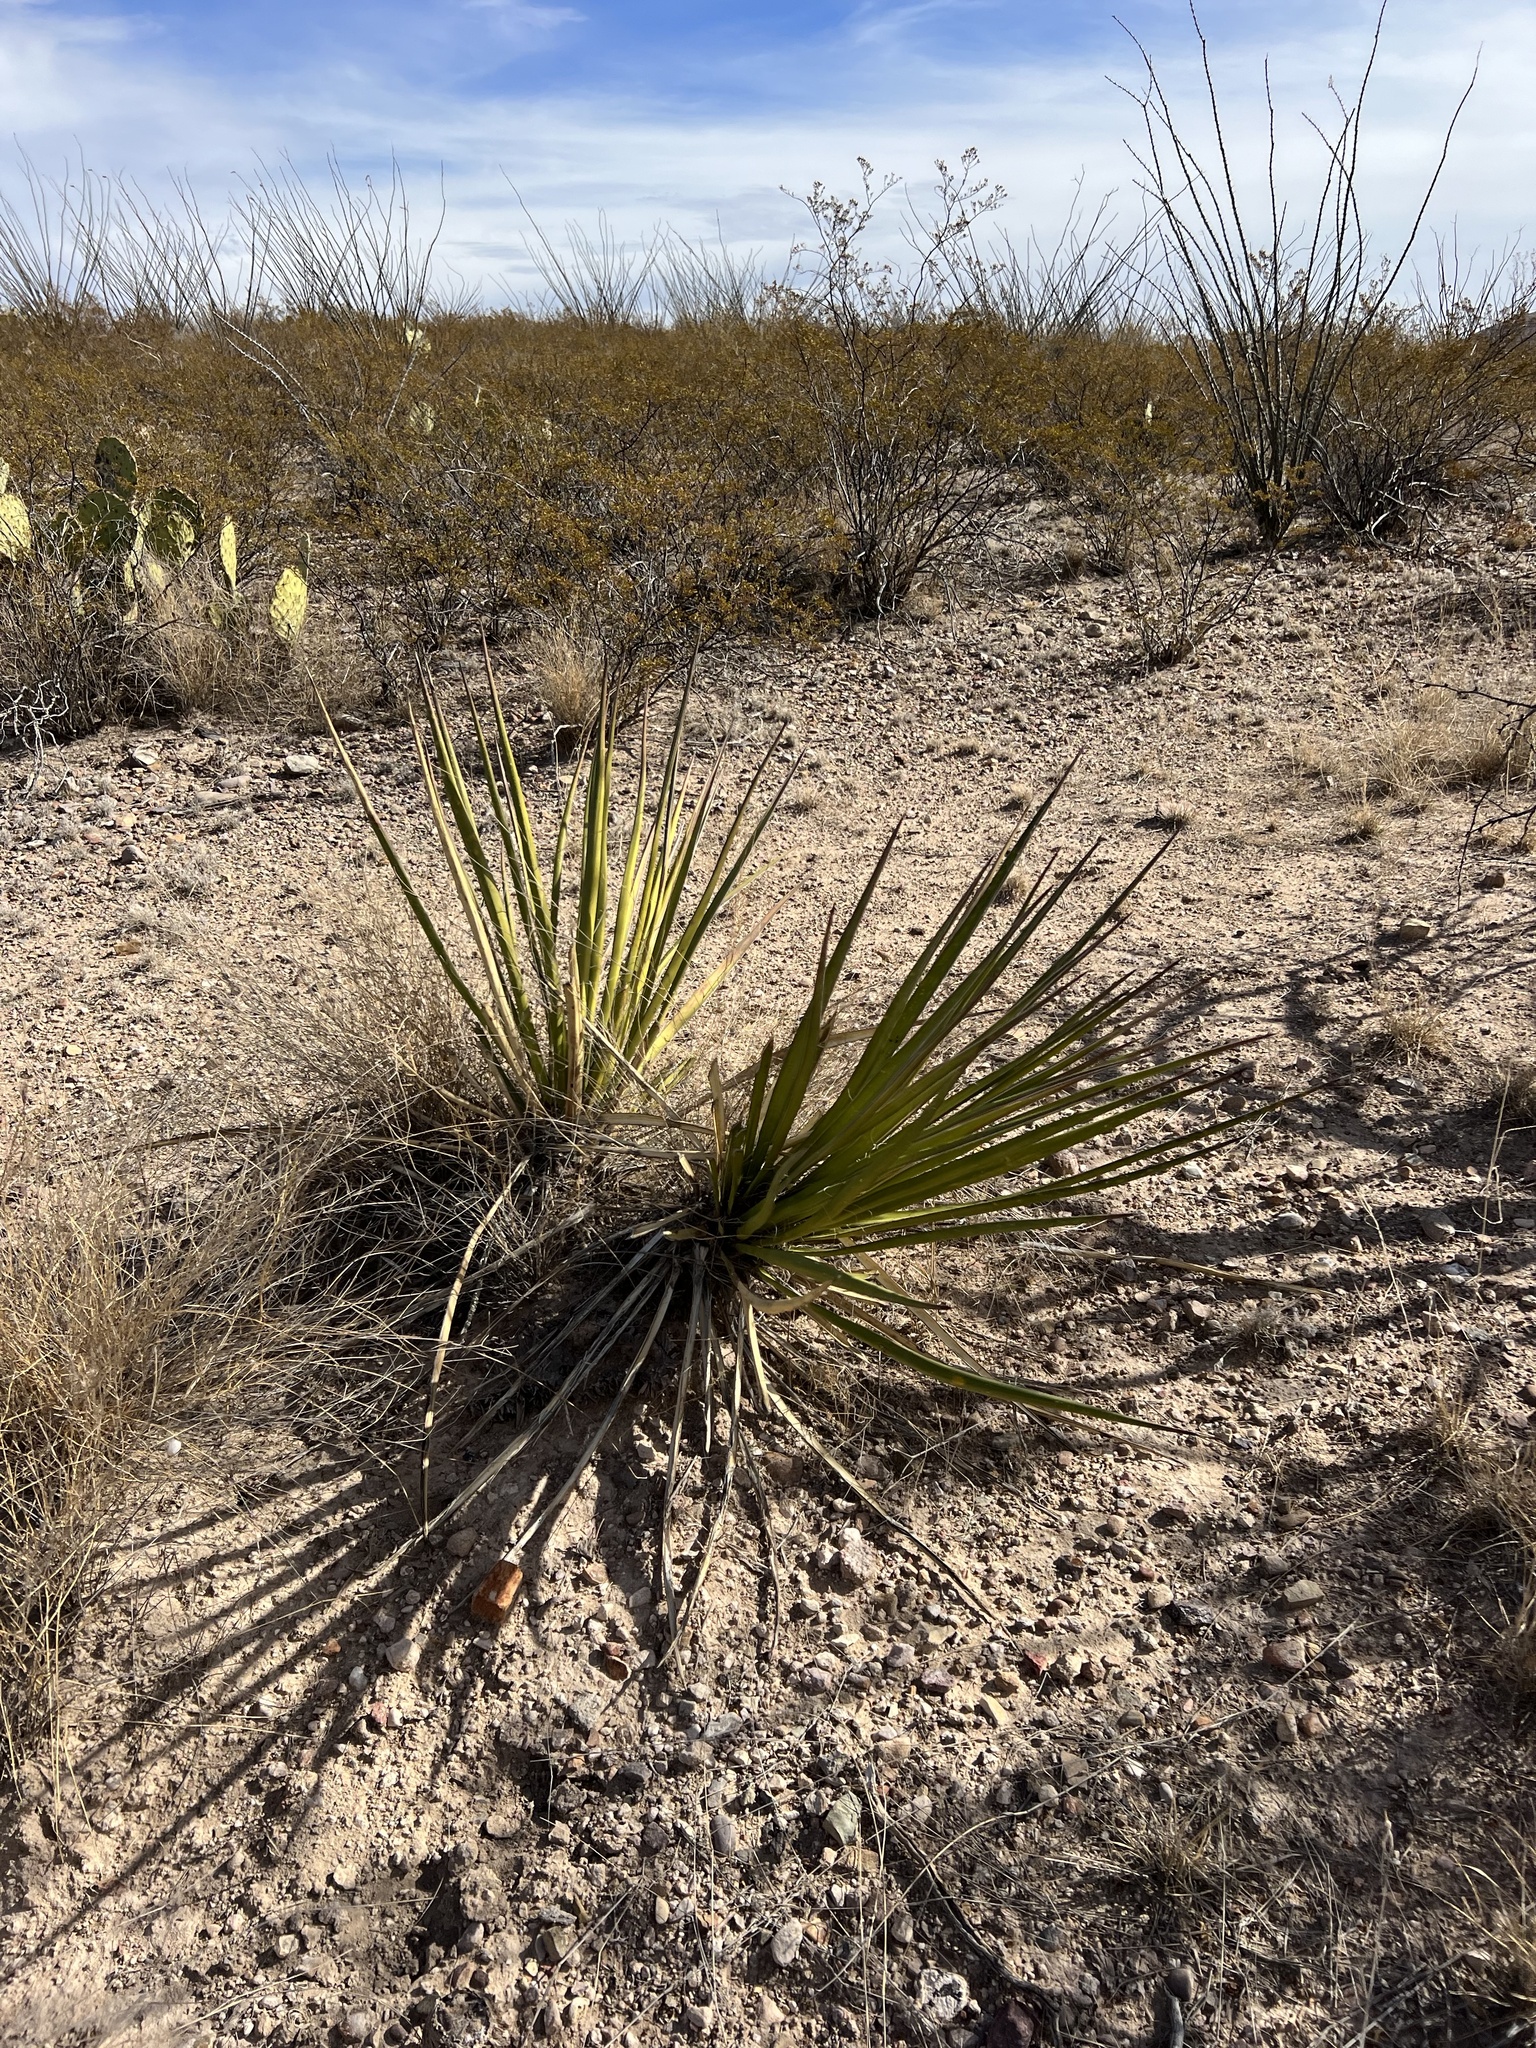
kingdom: Plantae
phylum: Tracheophyta
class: Liliopsida
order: Asparagales
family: Asparagaceae
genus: Yucca
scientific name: Yucca baccata
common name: Banana yucca
